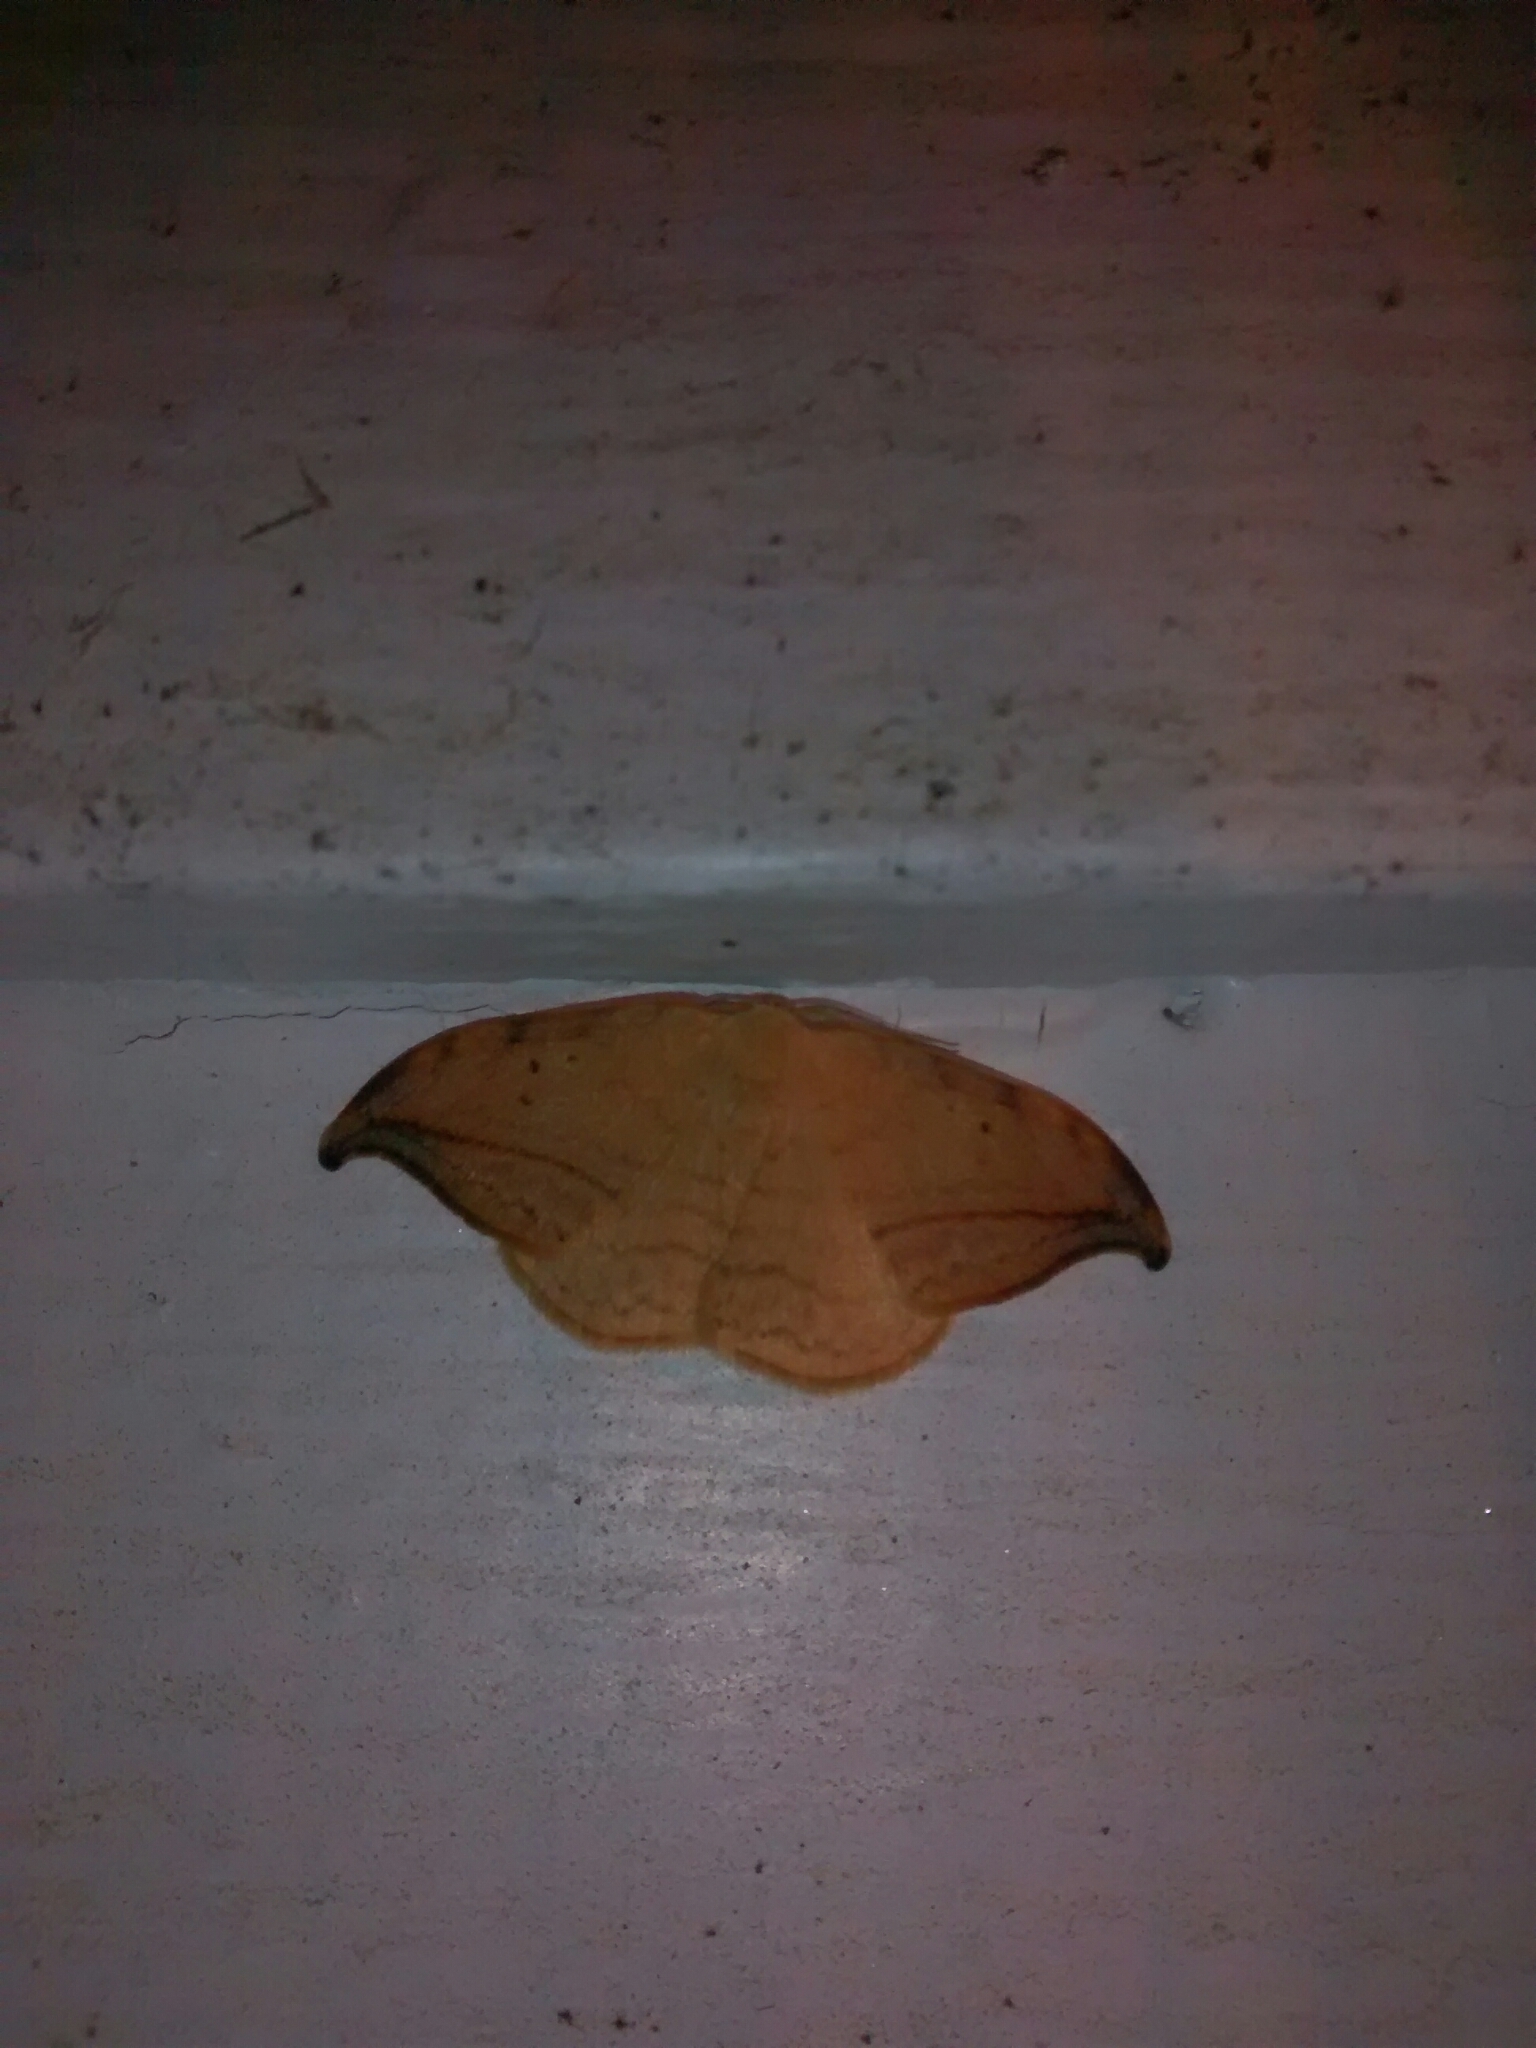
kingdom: Animalia
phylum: Arthropoda
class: Insecta
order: Lepidoptera
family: Drepanidae
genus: Drepana
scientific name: Drepana arcuata
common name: Arched hooktip moth
